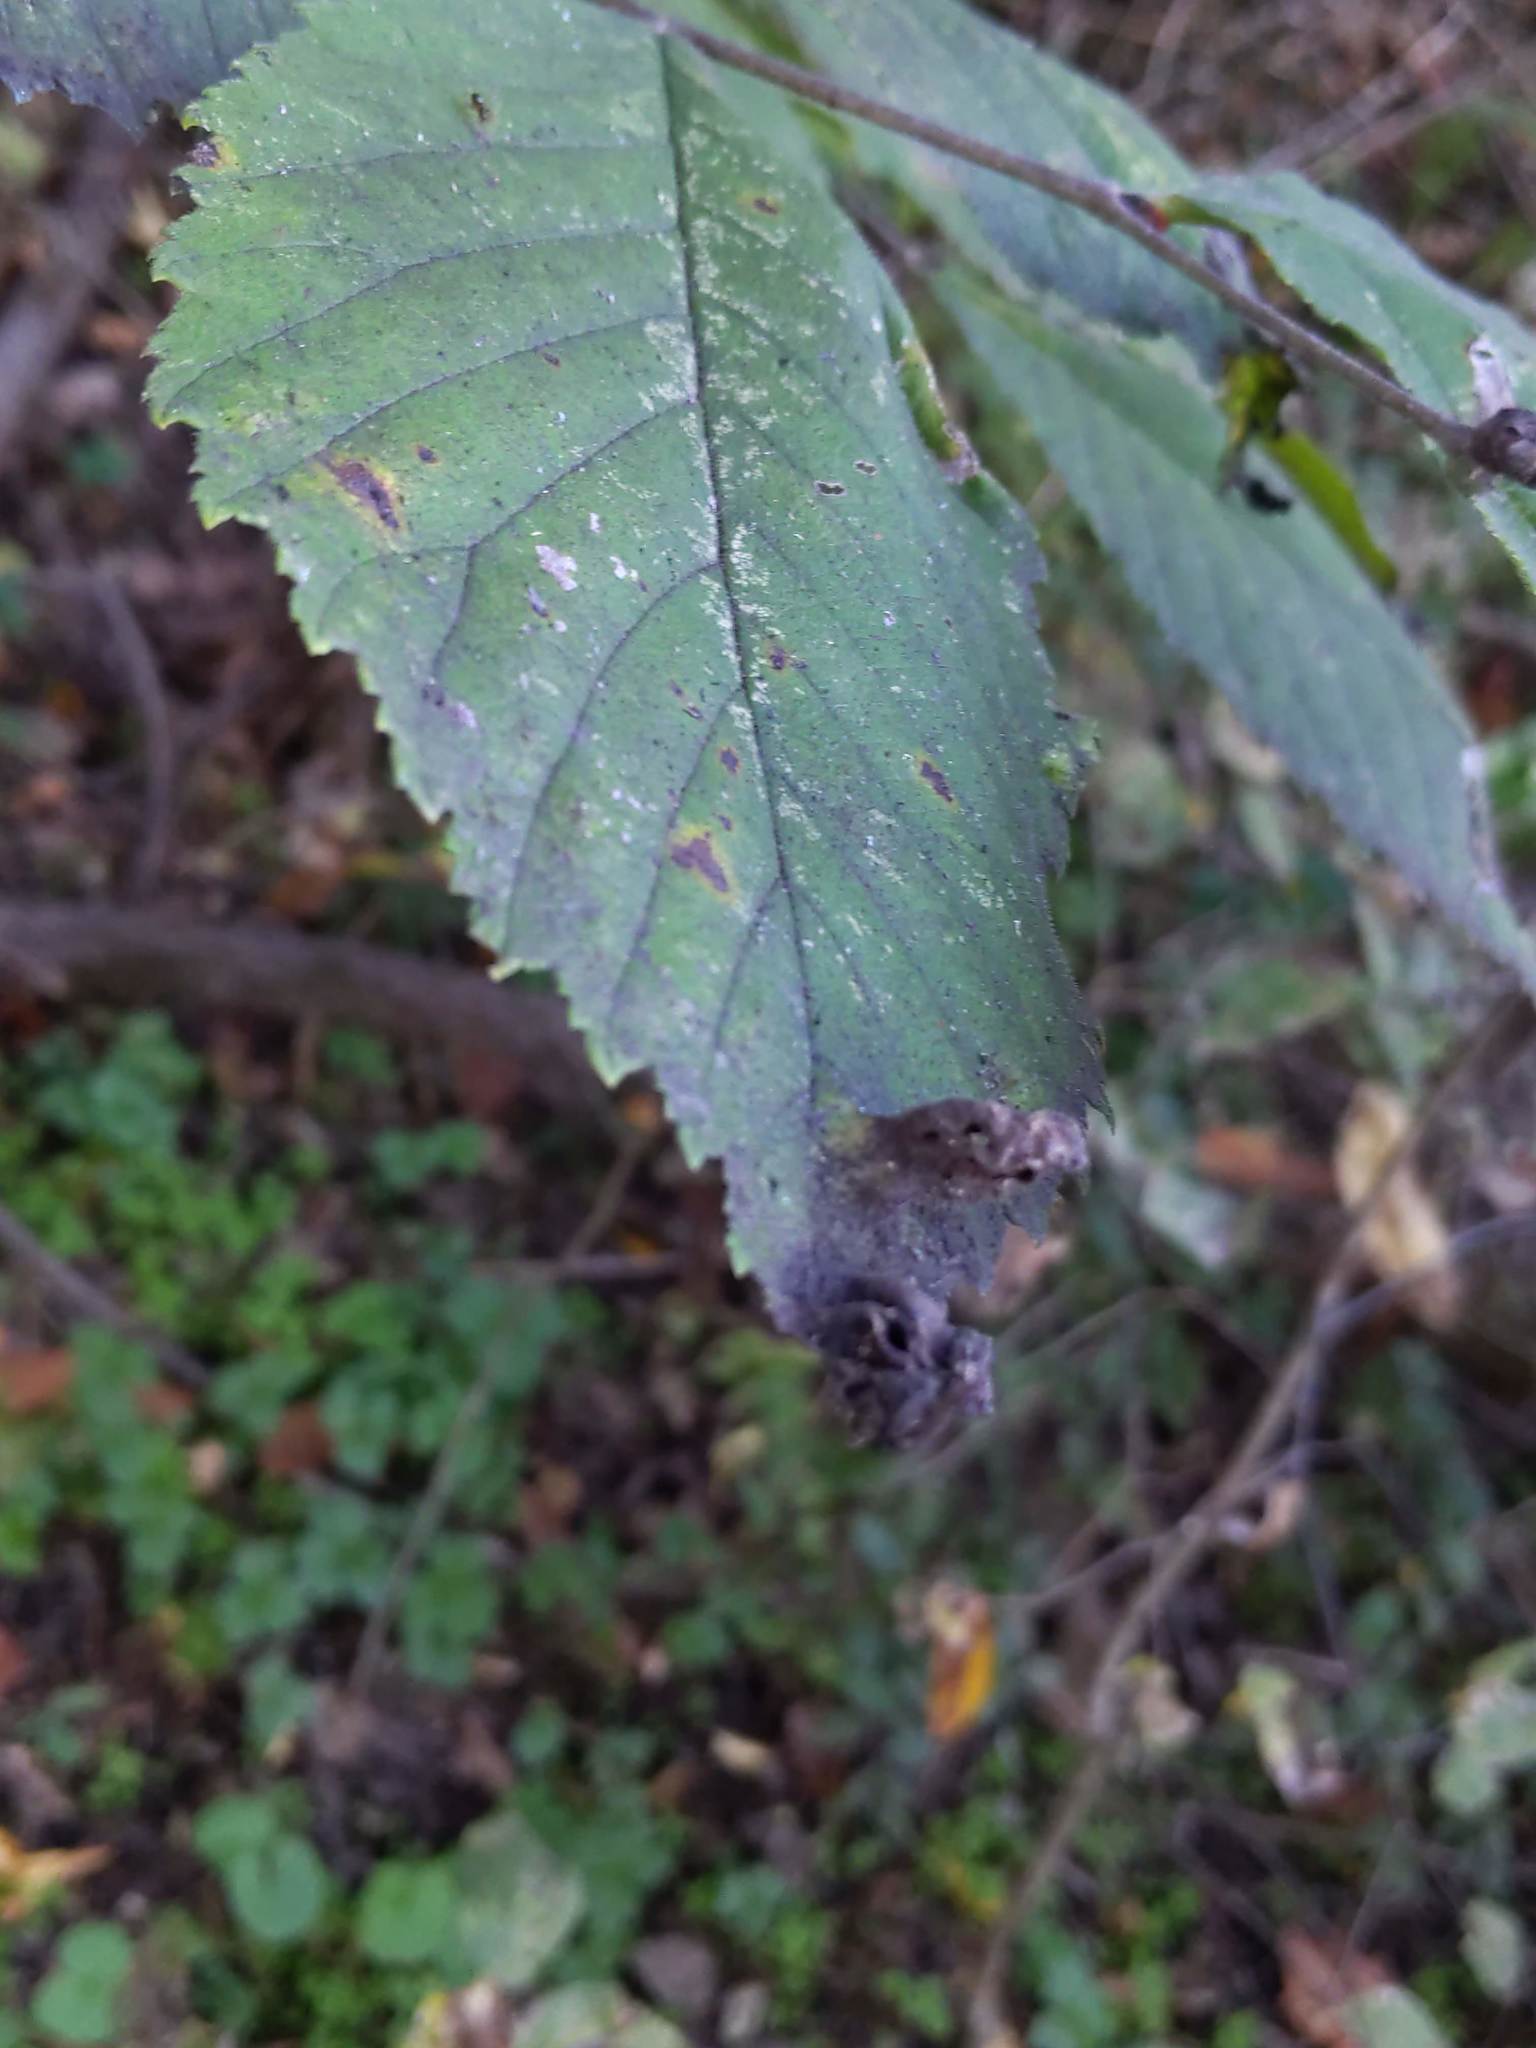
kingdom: Animalia
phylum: Arthropoda
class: Insecta
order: Hemiptera
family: Aphididae
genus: Tetraneura
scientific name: Tetraneura nigriabdominalis
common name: Aphid
